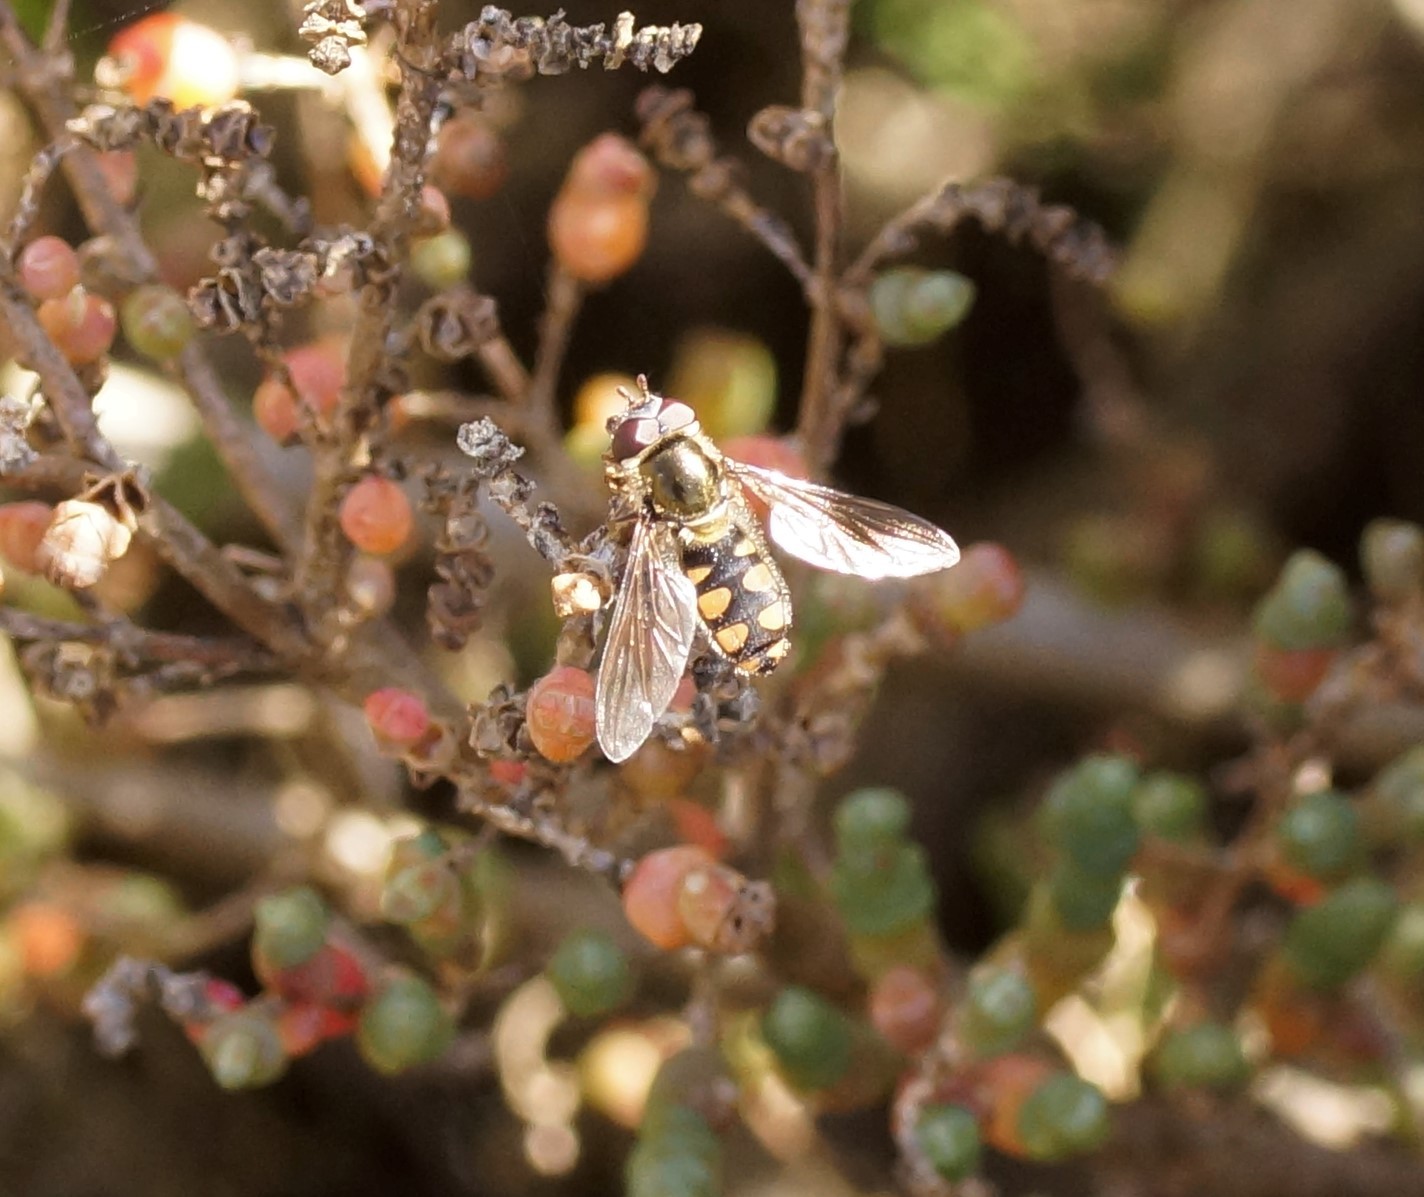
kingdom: Animalia
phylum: Arthropoda
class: Insecta
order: Diptera
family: Syrphidae
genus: Melangyna
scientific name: Melangyna viridiceps
